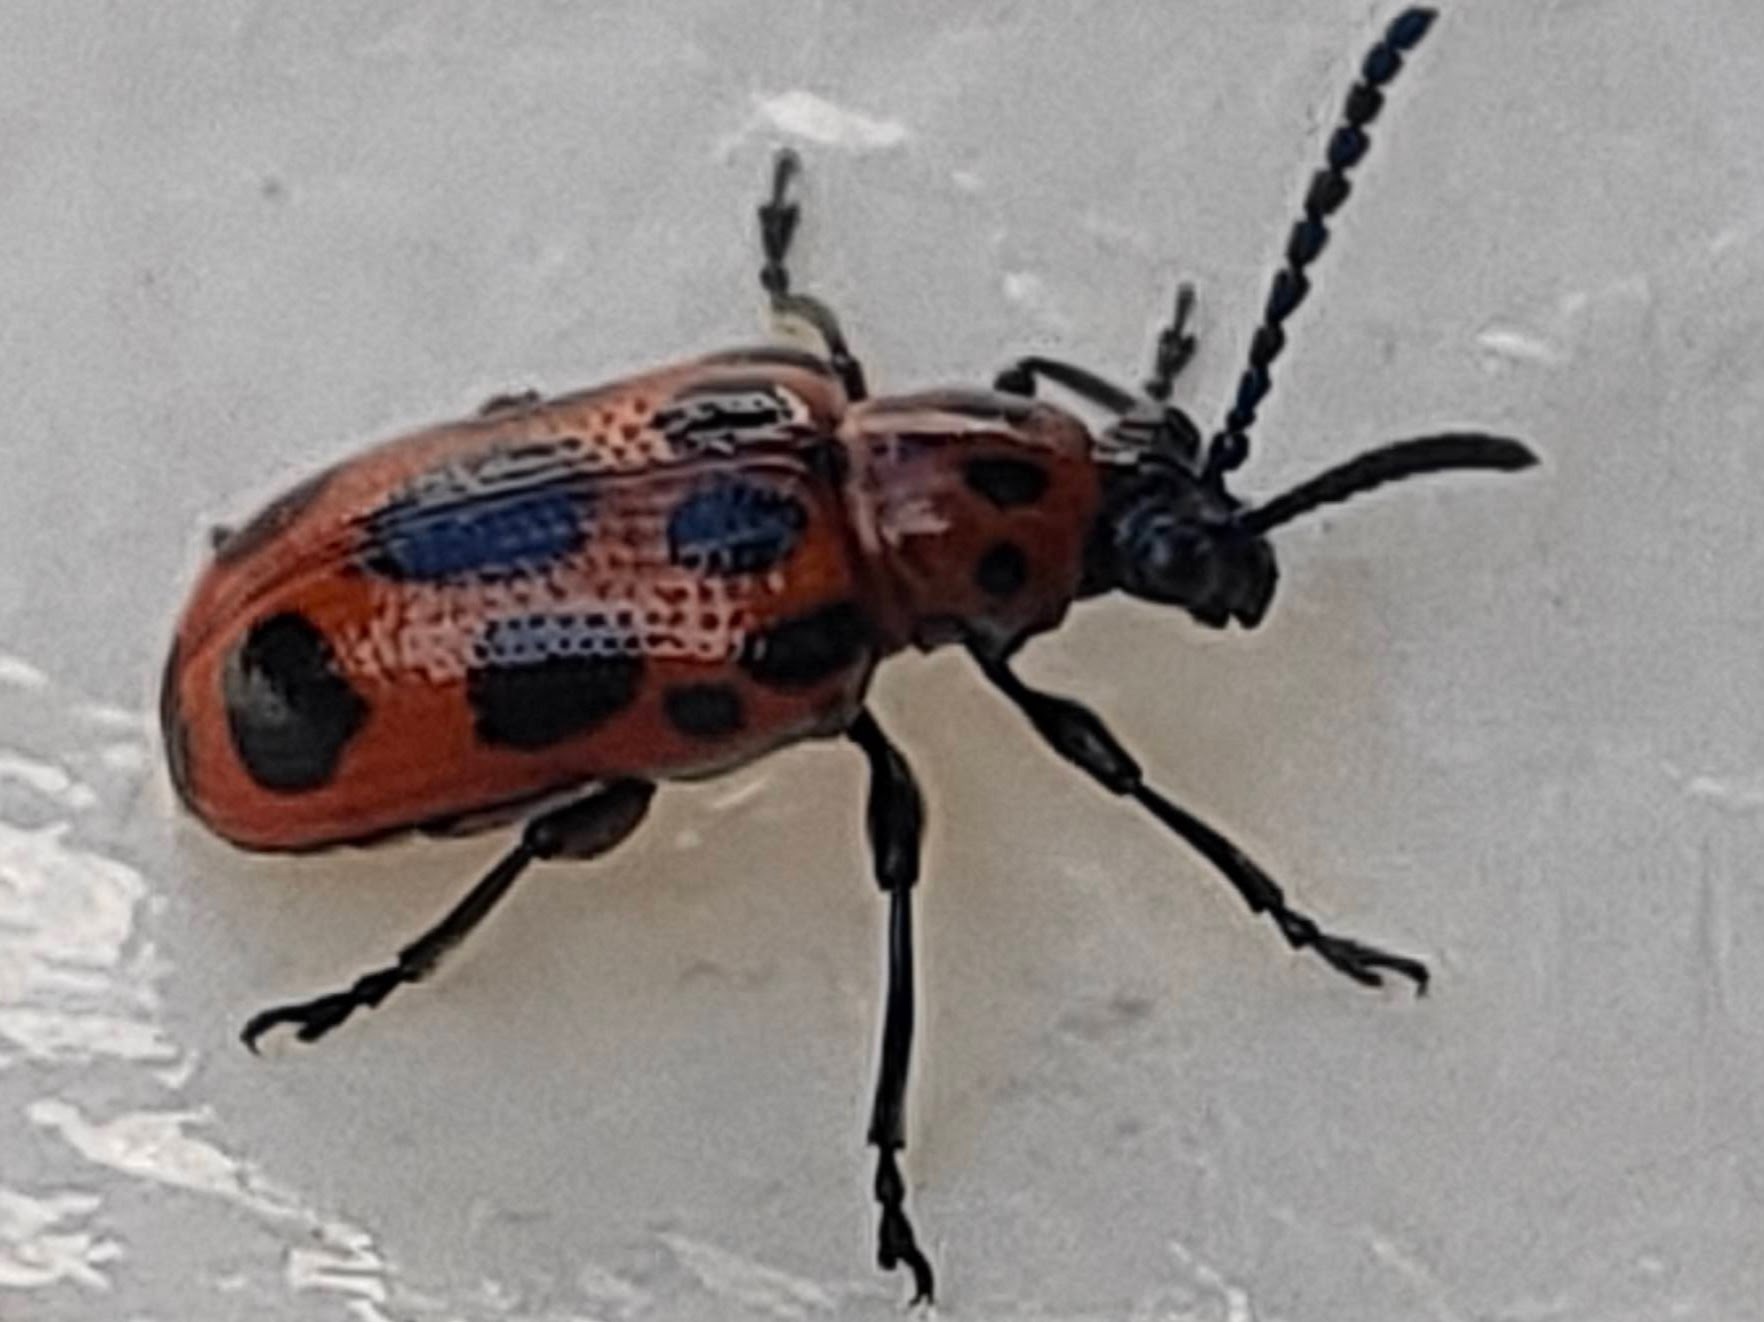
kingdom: Animalia
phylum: Arthropoda
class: Insecta
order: Coleoptera
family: Chrysomelidae
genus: Crioceris
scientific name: Crioceris quatuordecimpunctata
